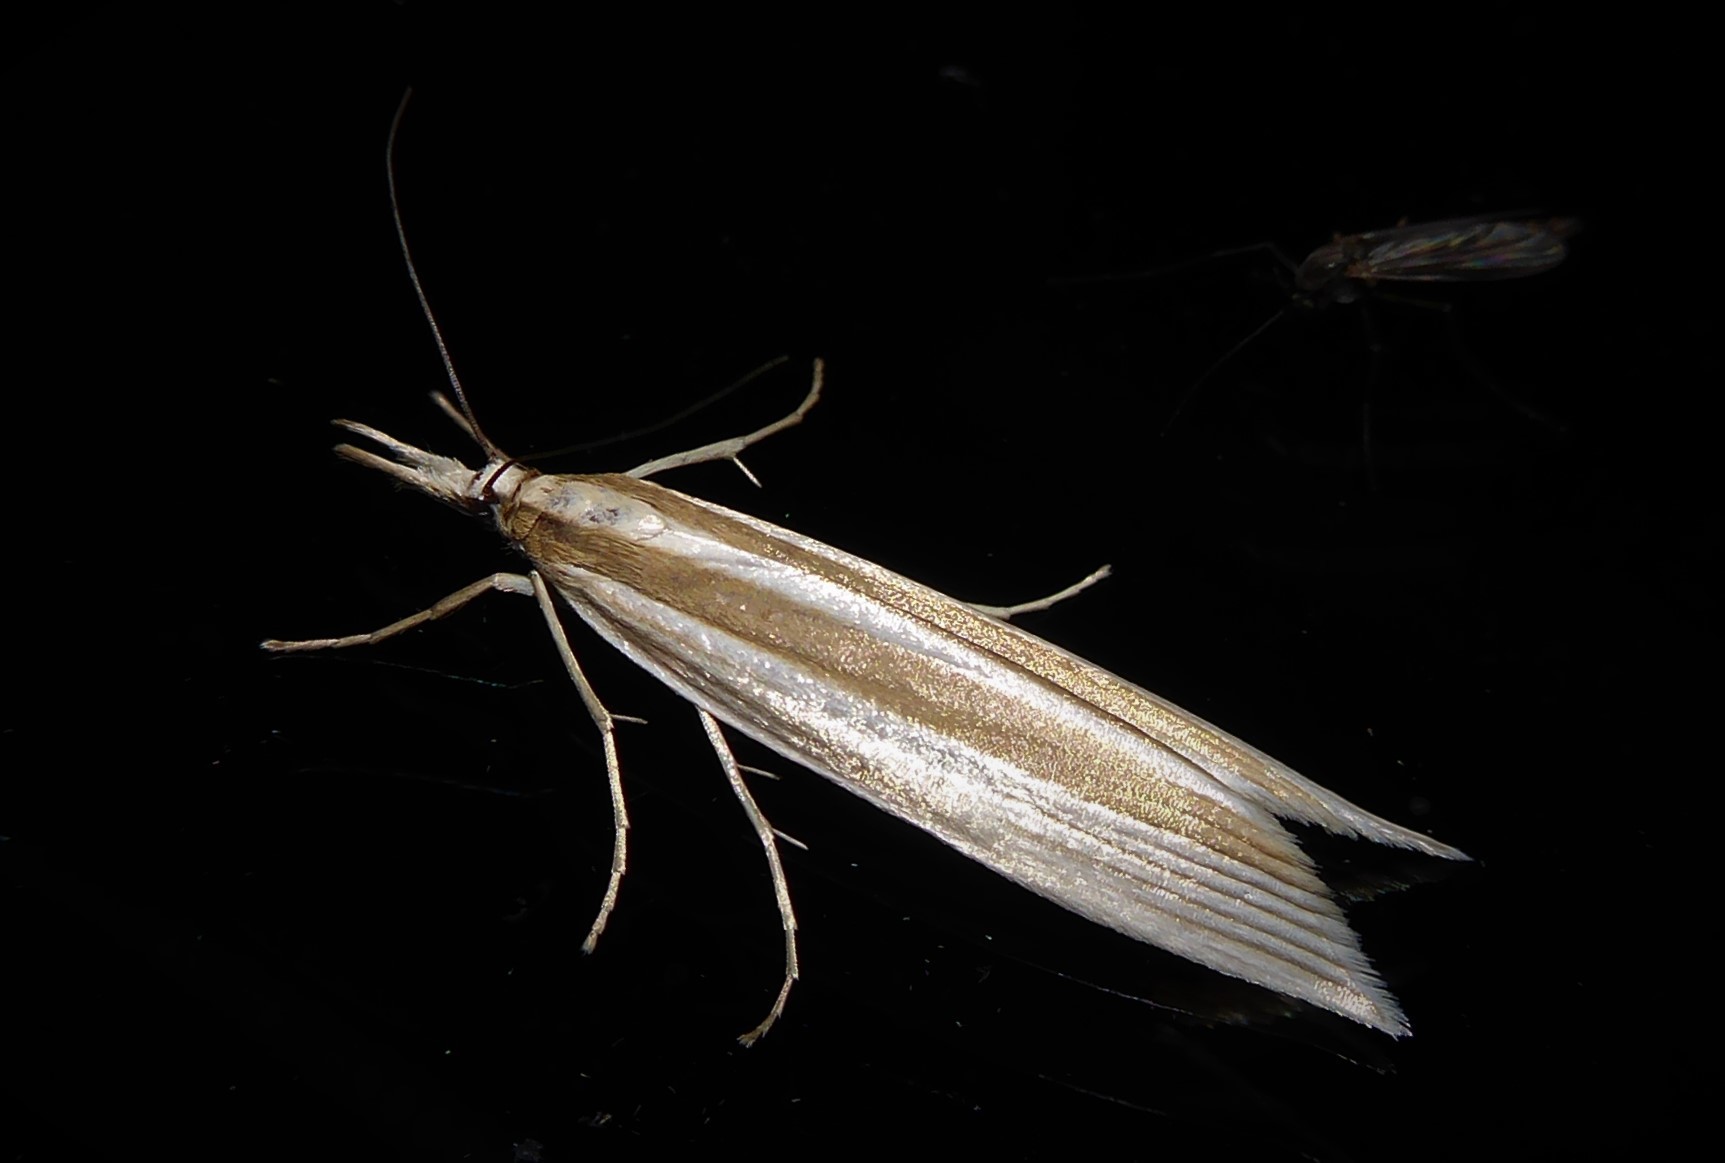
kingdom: Animalia
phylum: Arthropoda
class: Insecta
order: Lepidoptera
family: Crambidae
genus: Orocrambus
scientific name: Orocrambus angustipennis
